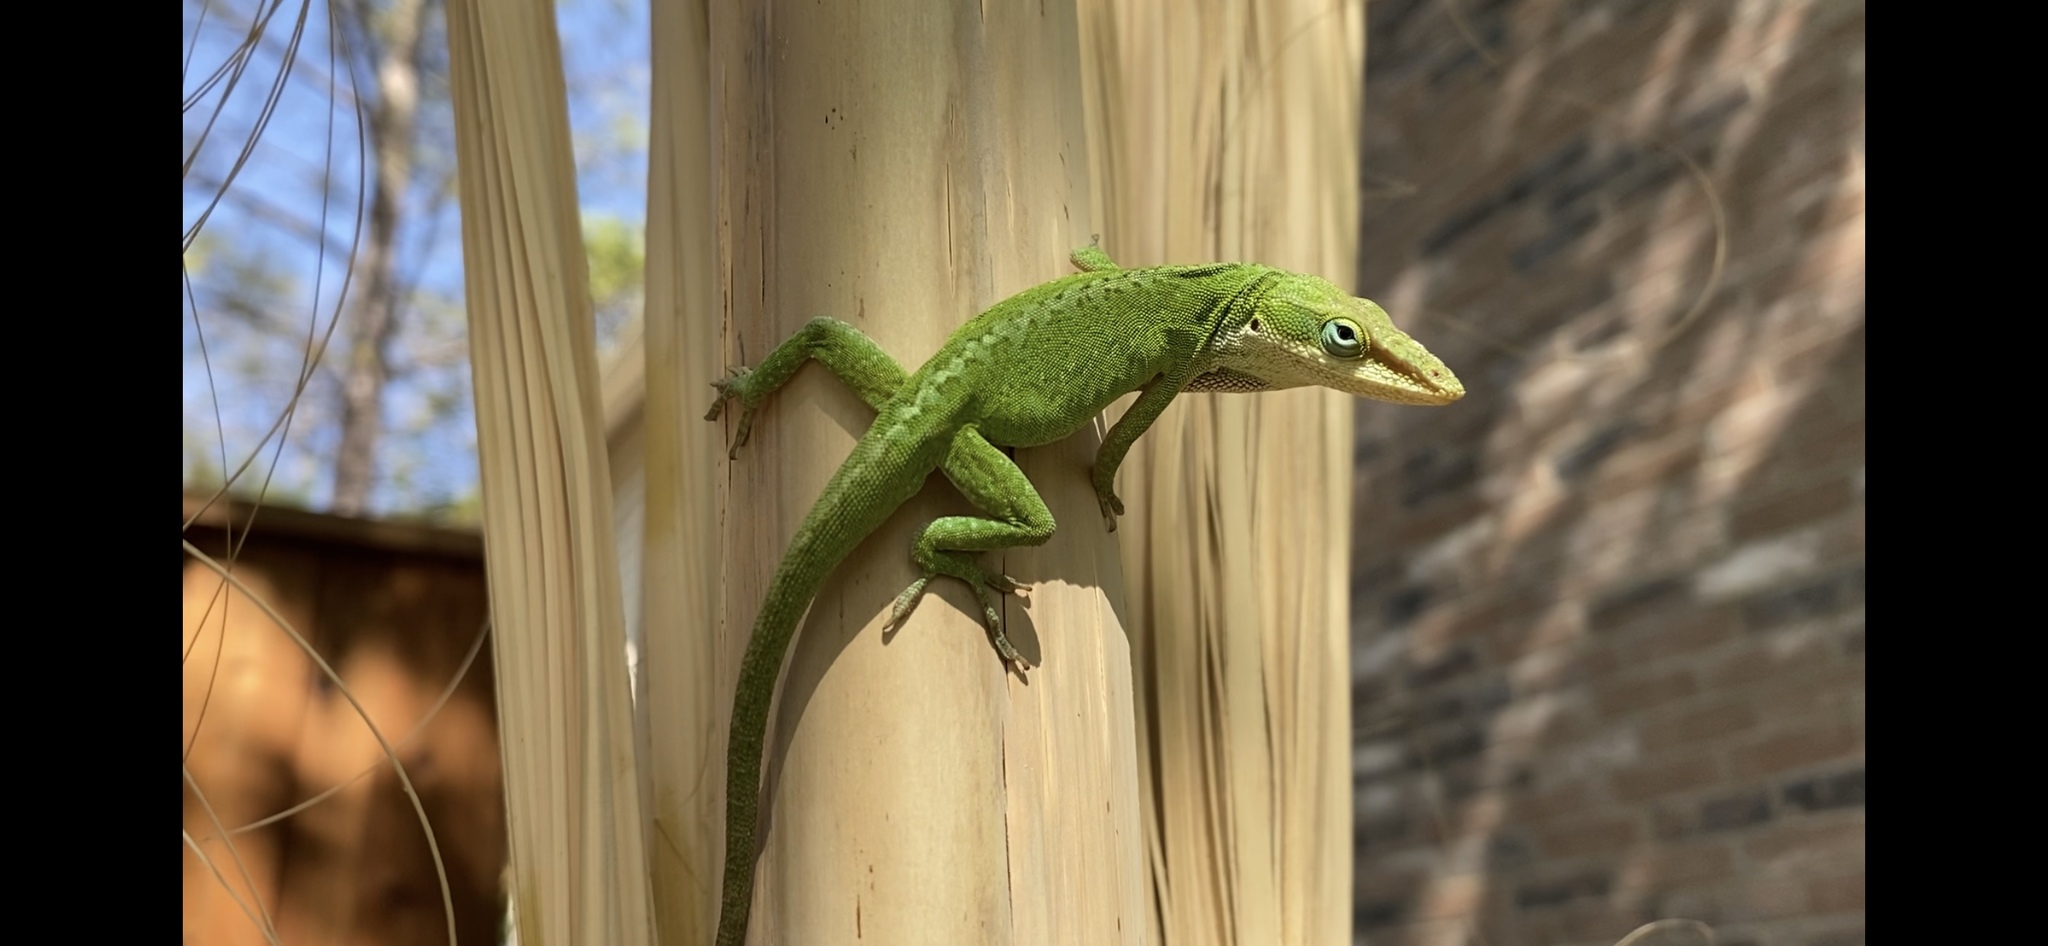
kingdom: Animalia
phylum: Chordata
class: Squamata
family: Dactyloidae
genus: Anolis
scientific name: Anolis carolinensis
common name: Green anole
